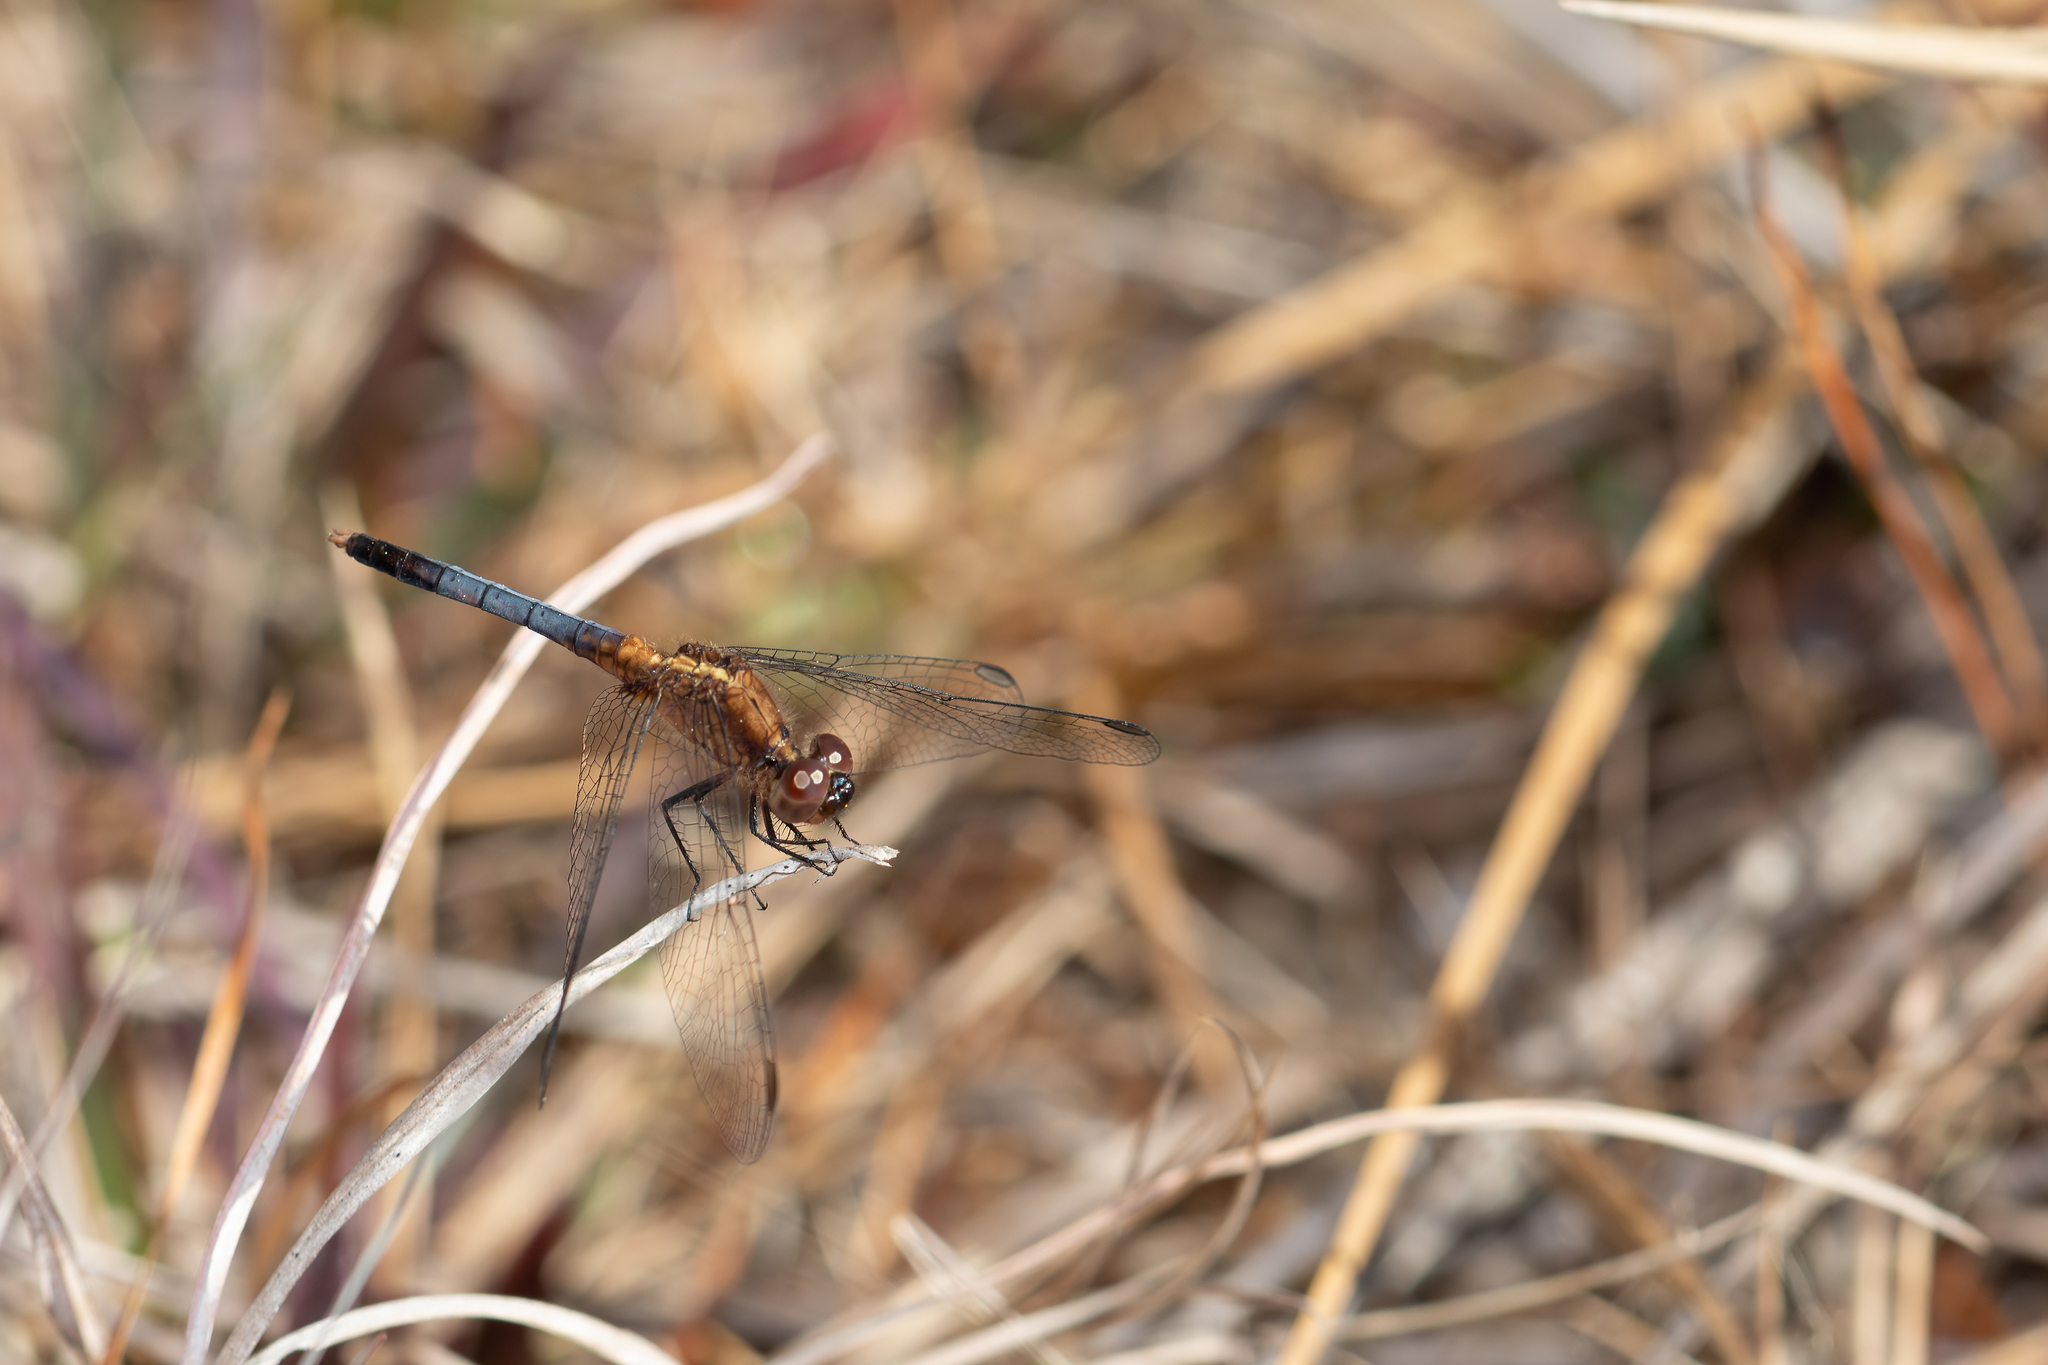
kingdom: Animalia
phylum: Arthropoda
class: Insecta
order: Odonata
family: Libellulidae
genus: Erythrodiplax
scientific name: Erythrodiplax minuscula
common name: Little blue dragonlet
